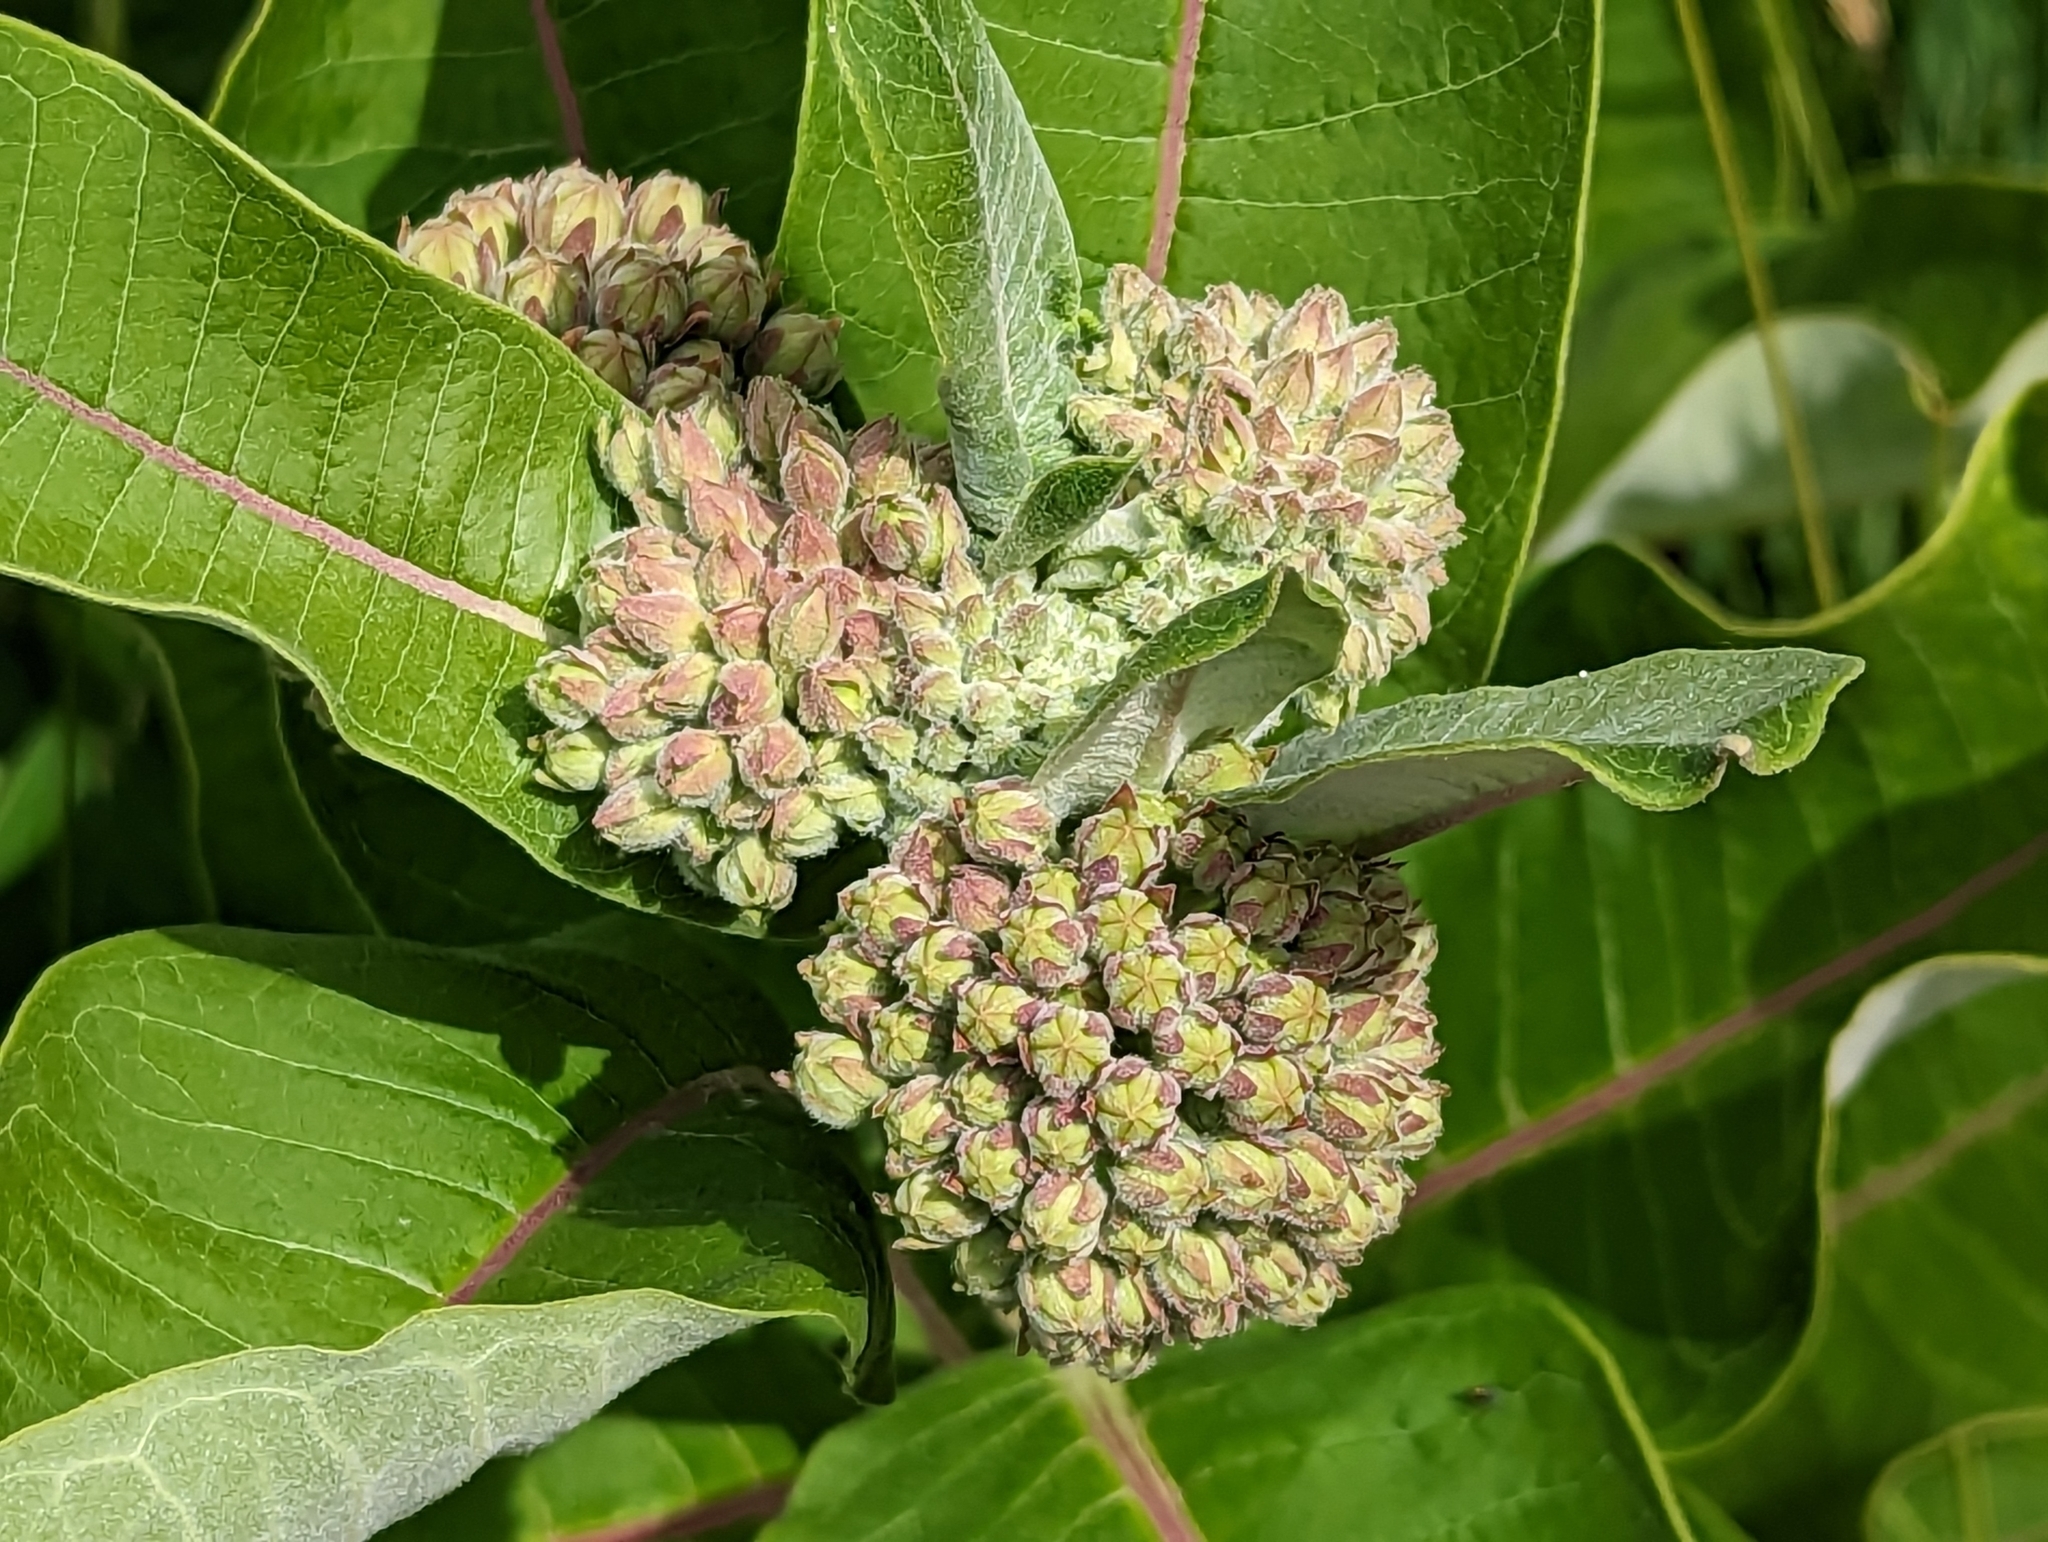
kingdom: Plantae
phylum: Tracheophyta
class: Magnoliopsida
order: Gentianales
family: Apocynaceae
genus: Asclepias
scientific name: Asclepias syriaca
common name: Common milkweed
